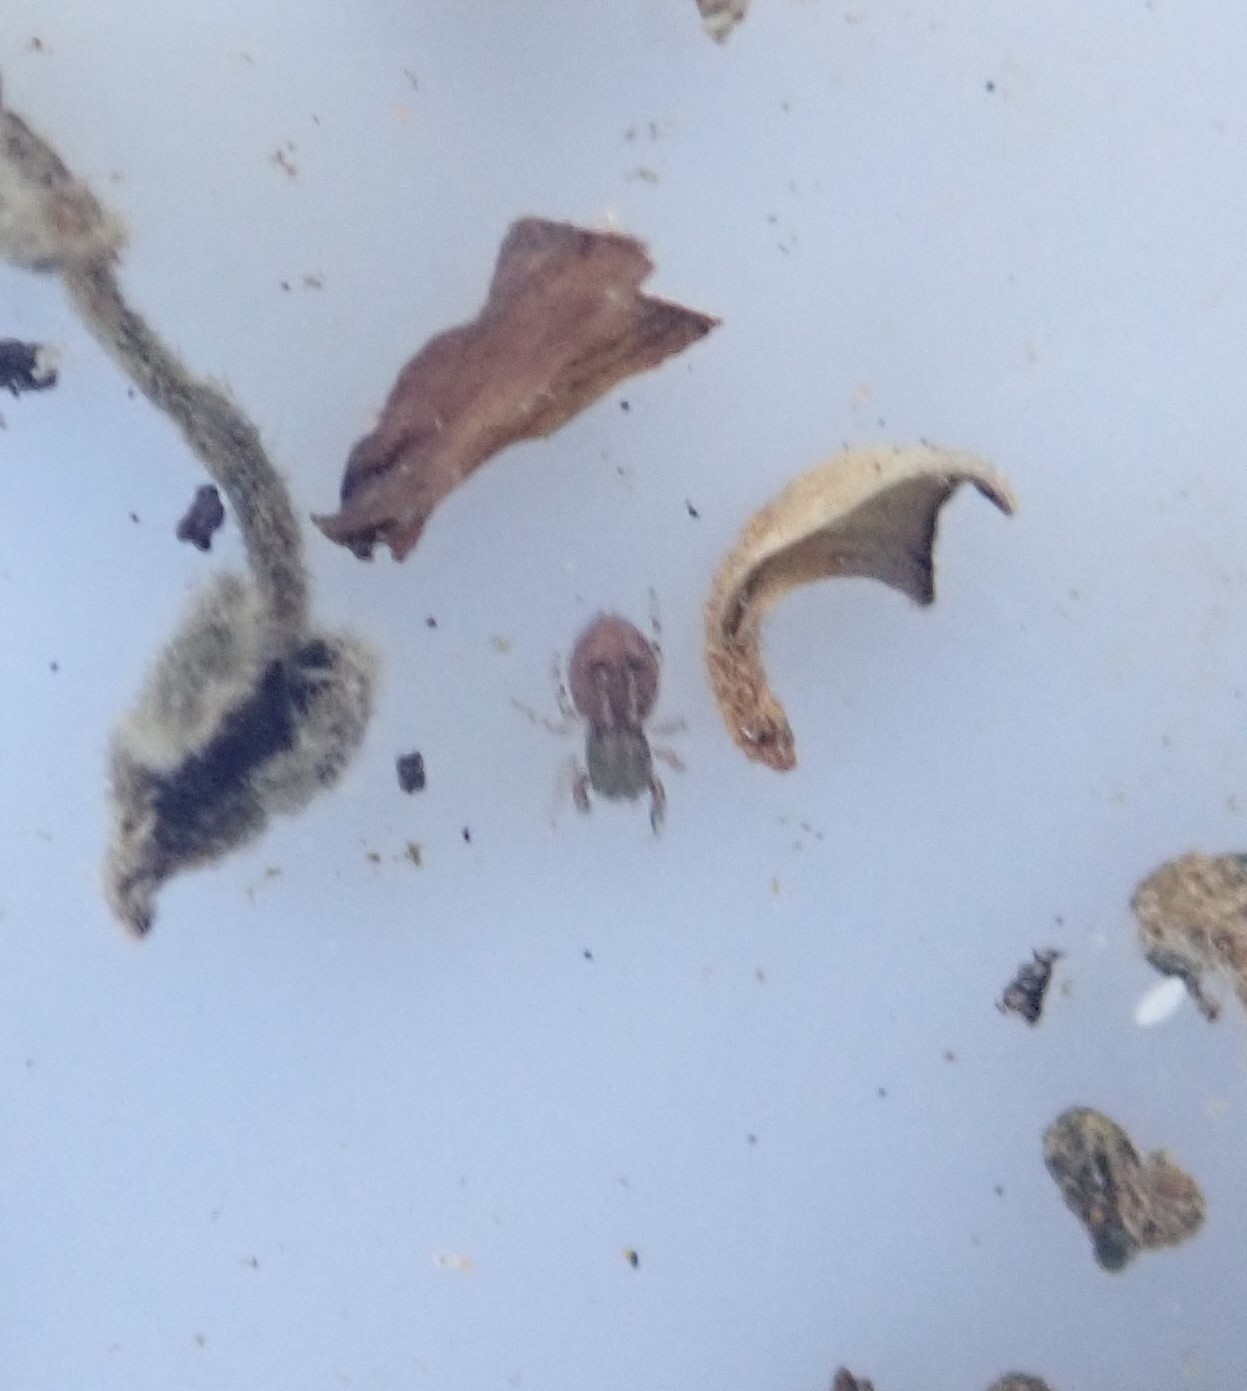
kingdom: Animalia
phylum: Arthropoda
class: Arachnida
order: Araneae
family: Salticidae
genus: Ballus
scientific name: Ballus chalybeius
